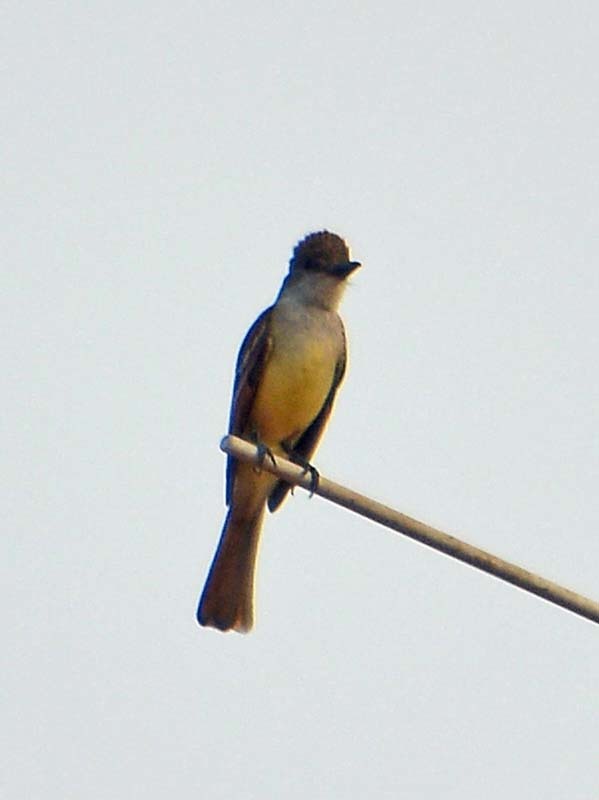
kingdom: Animalia
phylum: Chordata
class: Aves
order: Passeriformes
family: Tyrannidae
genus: Myiarchus
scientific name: Myiarchus cinerascens
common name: Ash-throated flycatcher
